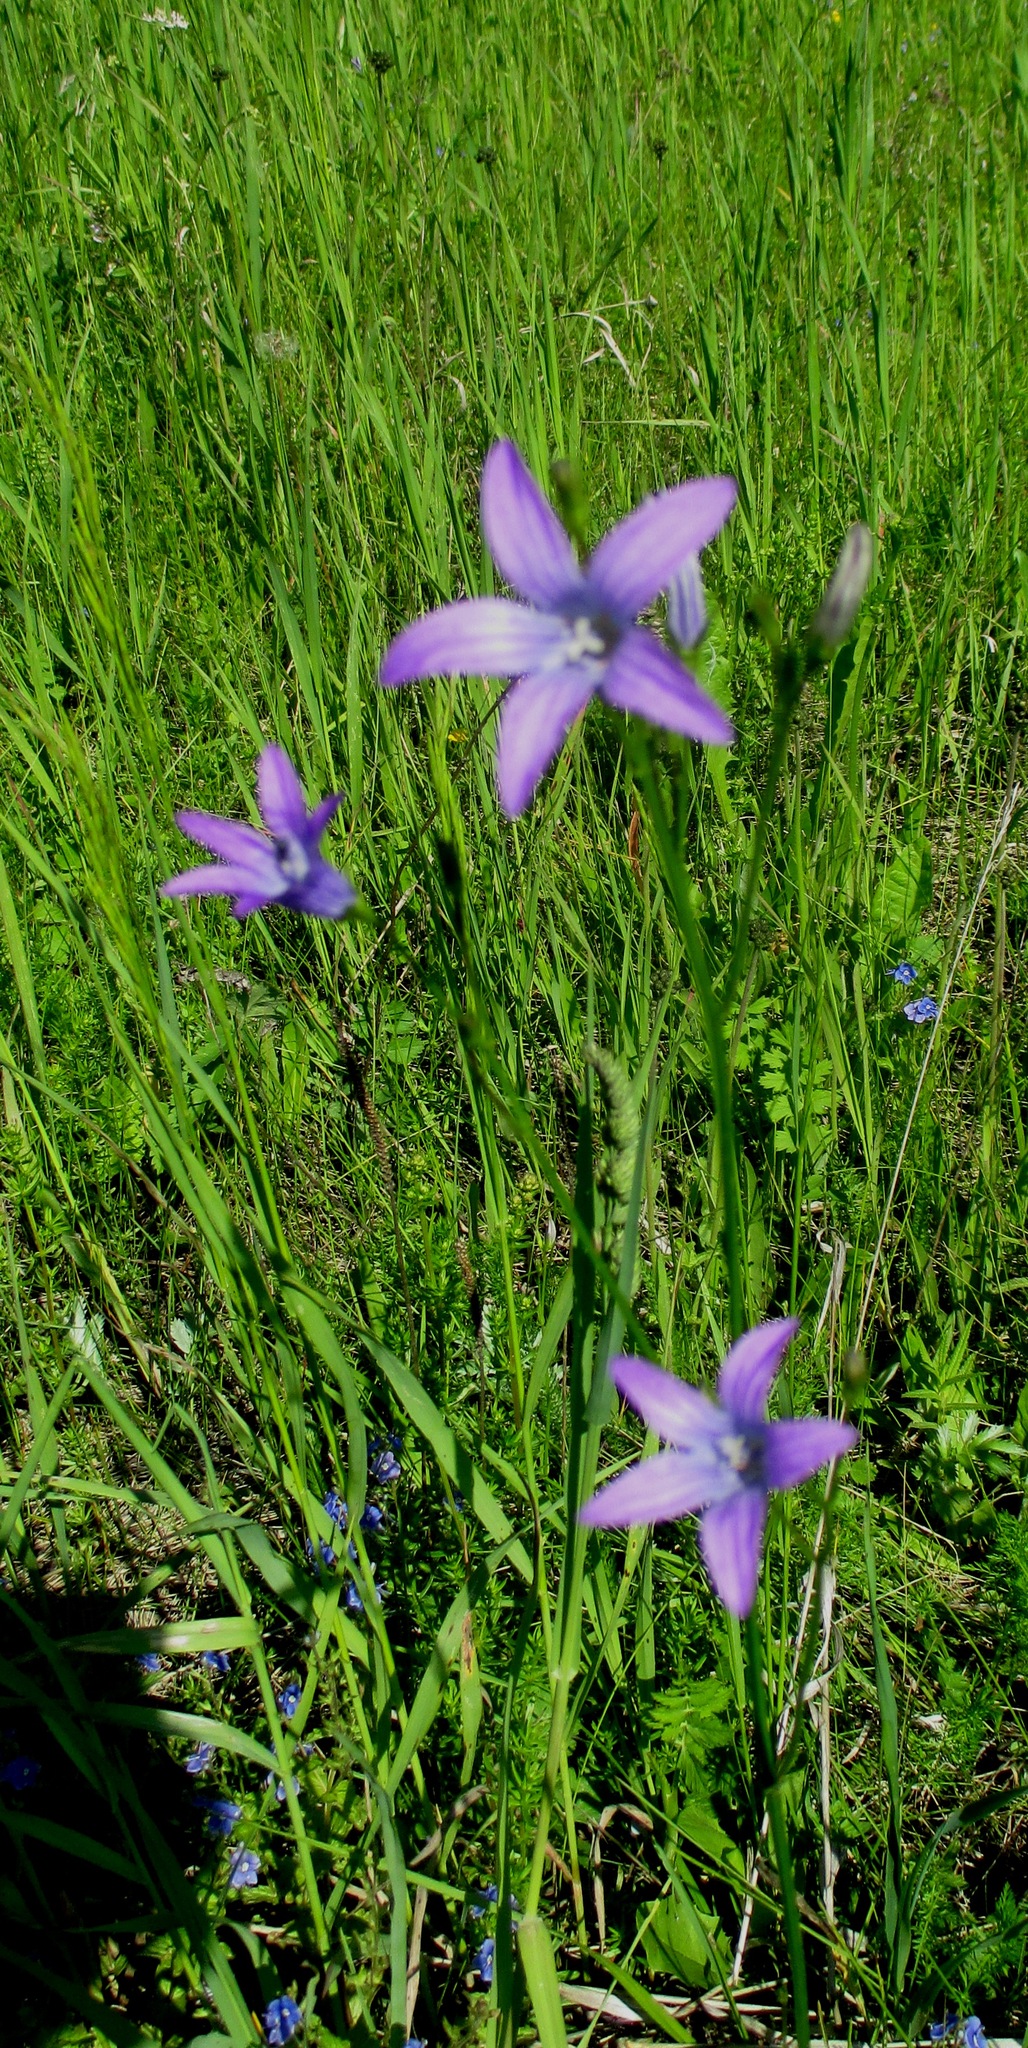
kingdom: Plantae
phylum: Tracheophyta
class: Magnoliopsida
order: Asterales
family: Campanulaceae
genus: Campanula
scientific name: Campanula patula
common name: Spreading bellflower
